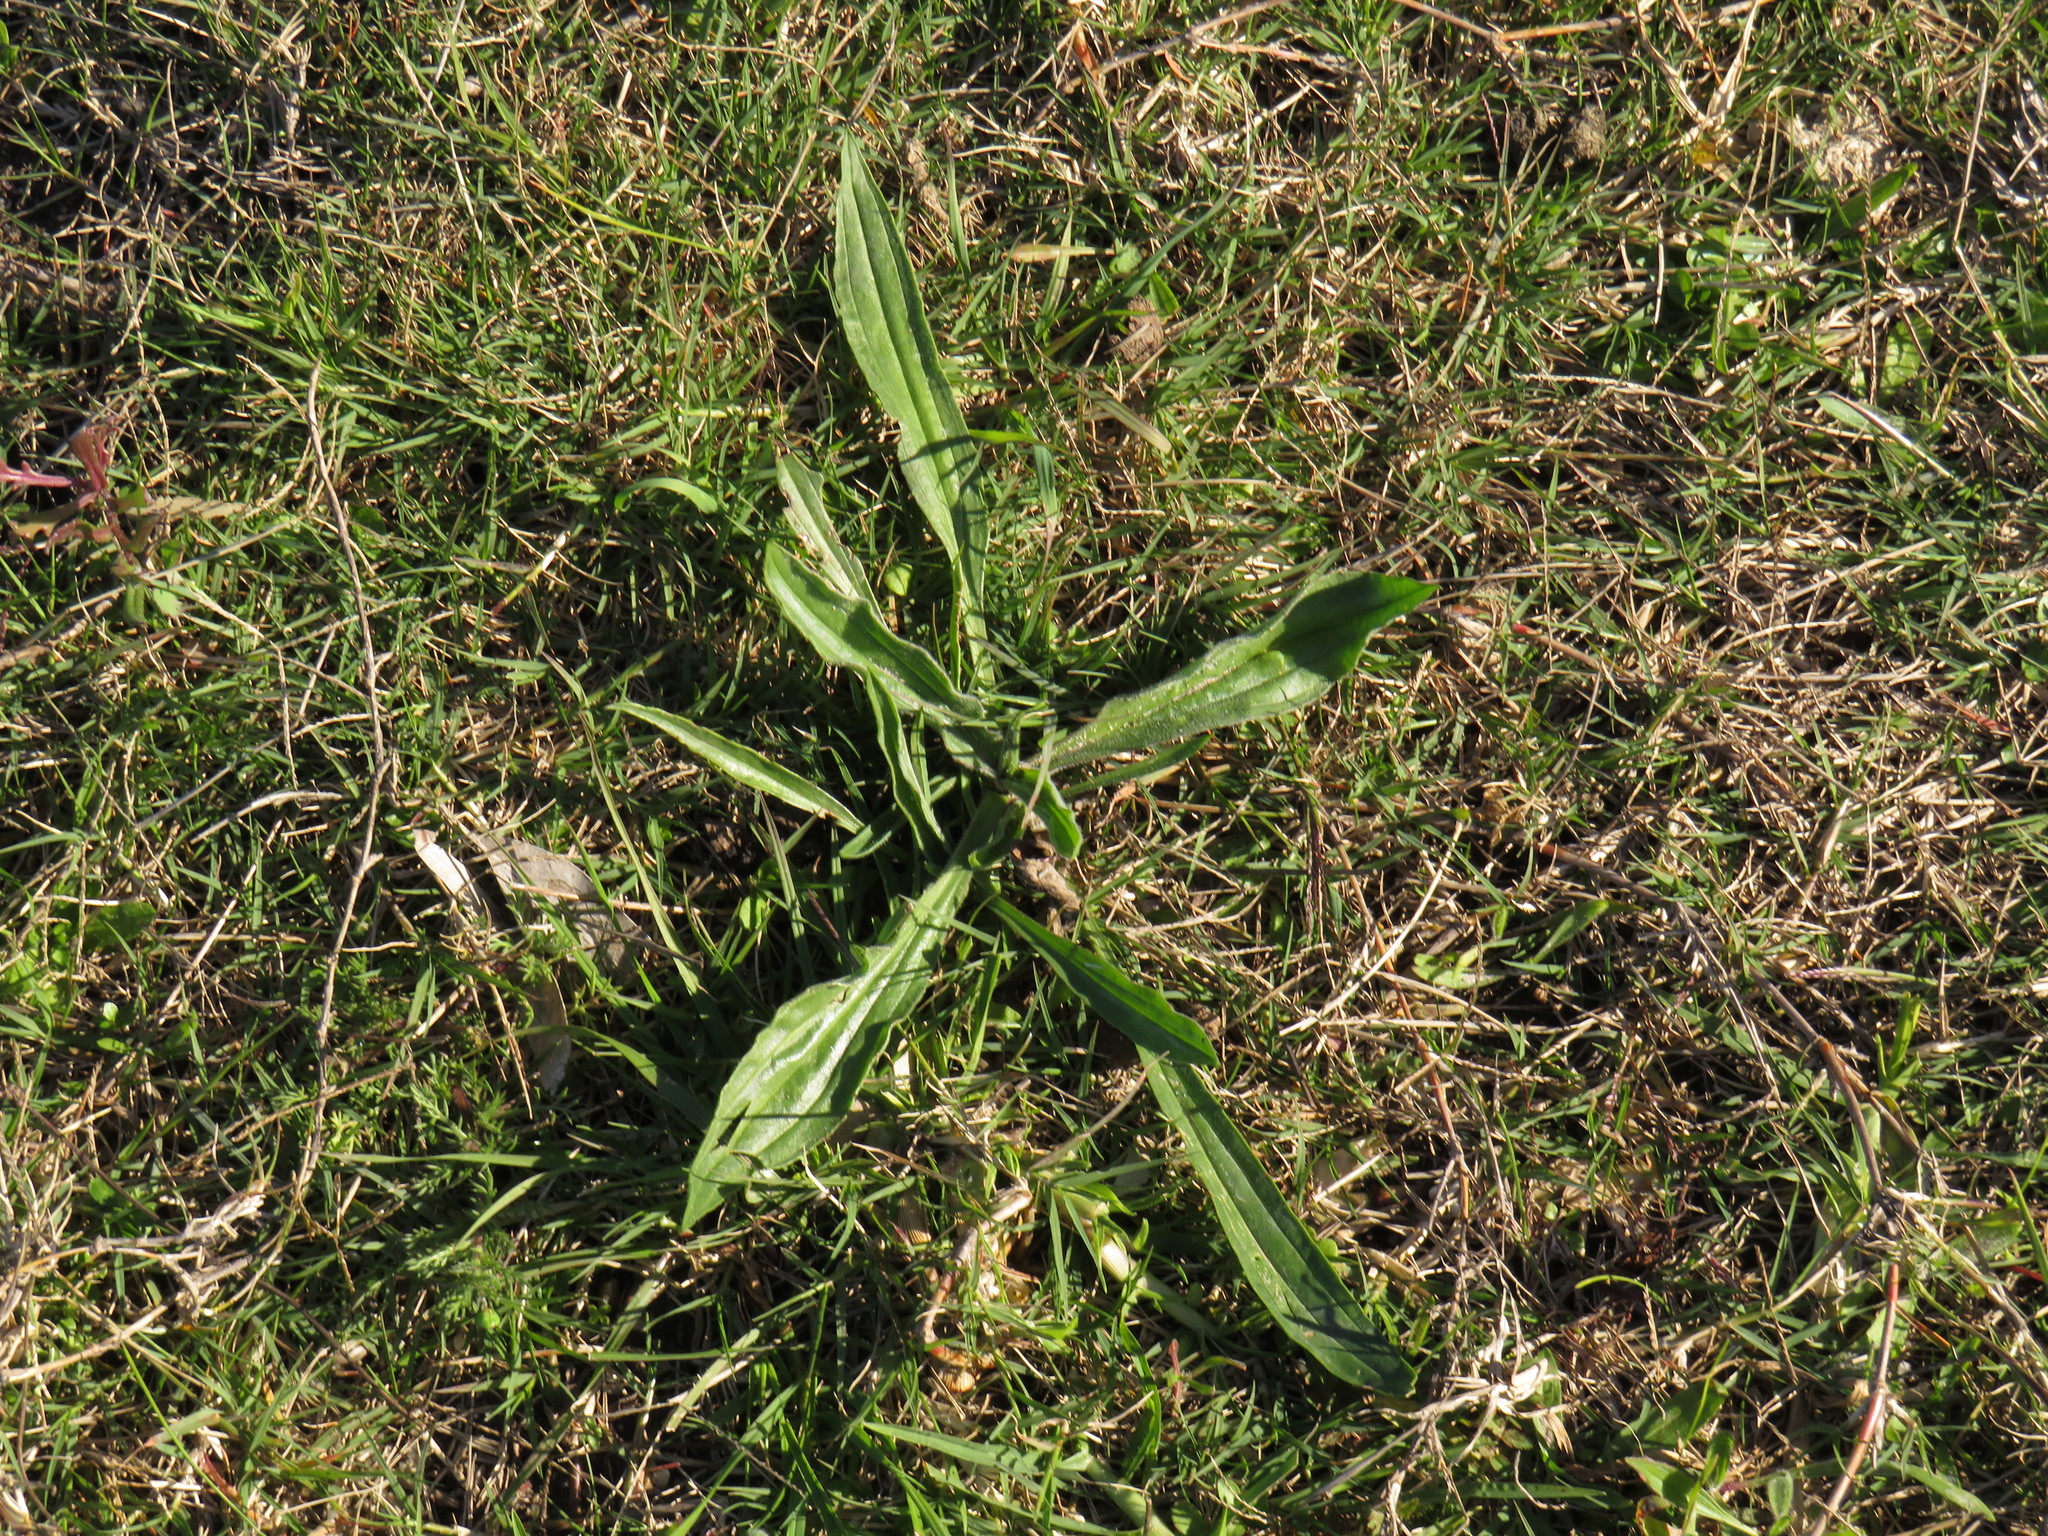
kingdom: Plantae
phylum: Tracheophyta
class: Magnoliopsida
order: Lamiales
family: Plantaginaceae
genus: Plantago
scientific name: Plantago lanceolata
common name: Ribwort plantain
